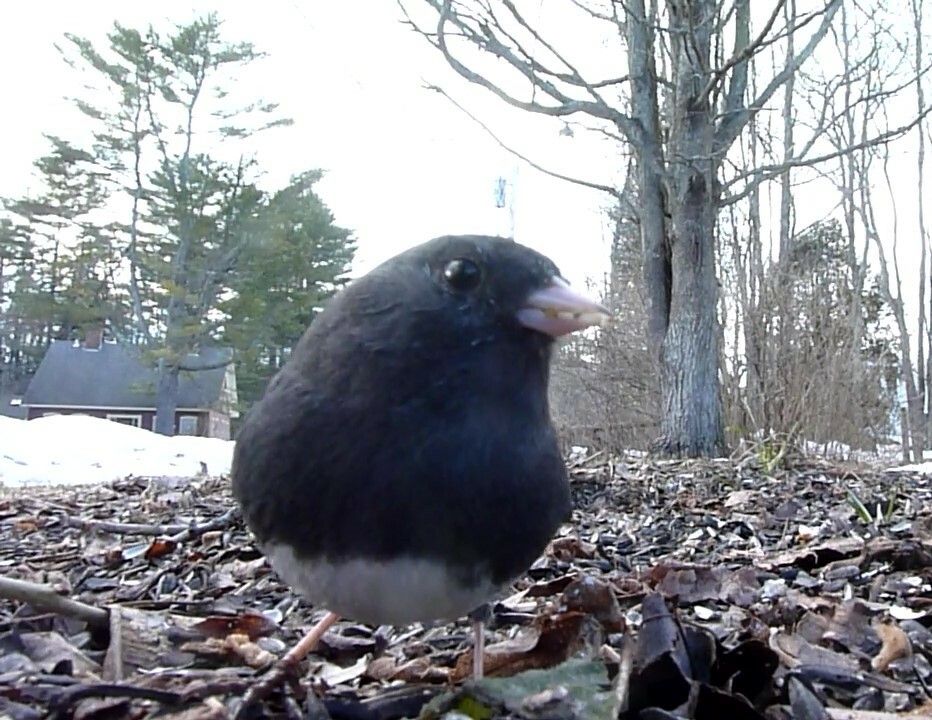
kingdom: Animalia
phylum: Chordata
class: Aves
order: Passeriformes
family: Passerellidae
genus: Junco
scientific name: Junco hyemalis
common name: Dark-eyed junco
